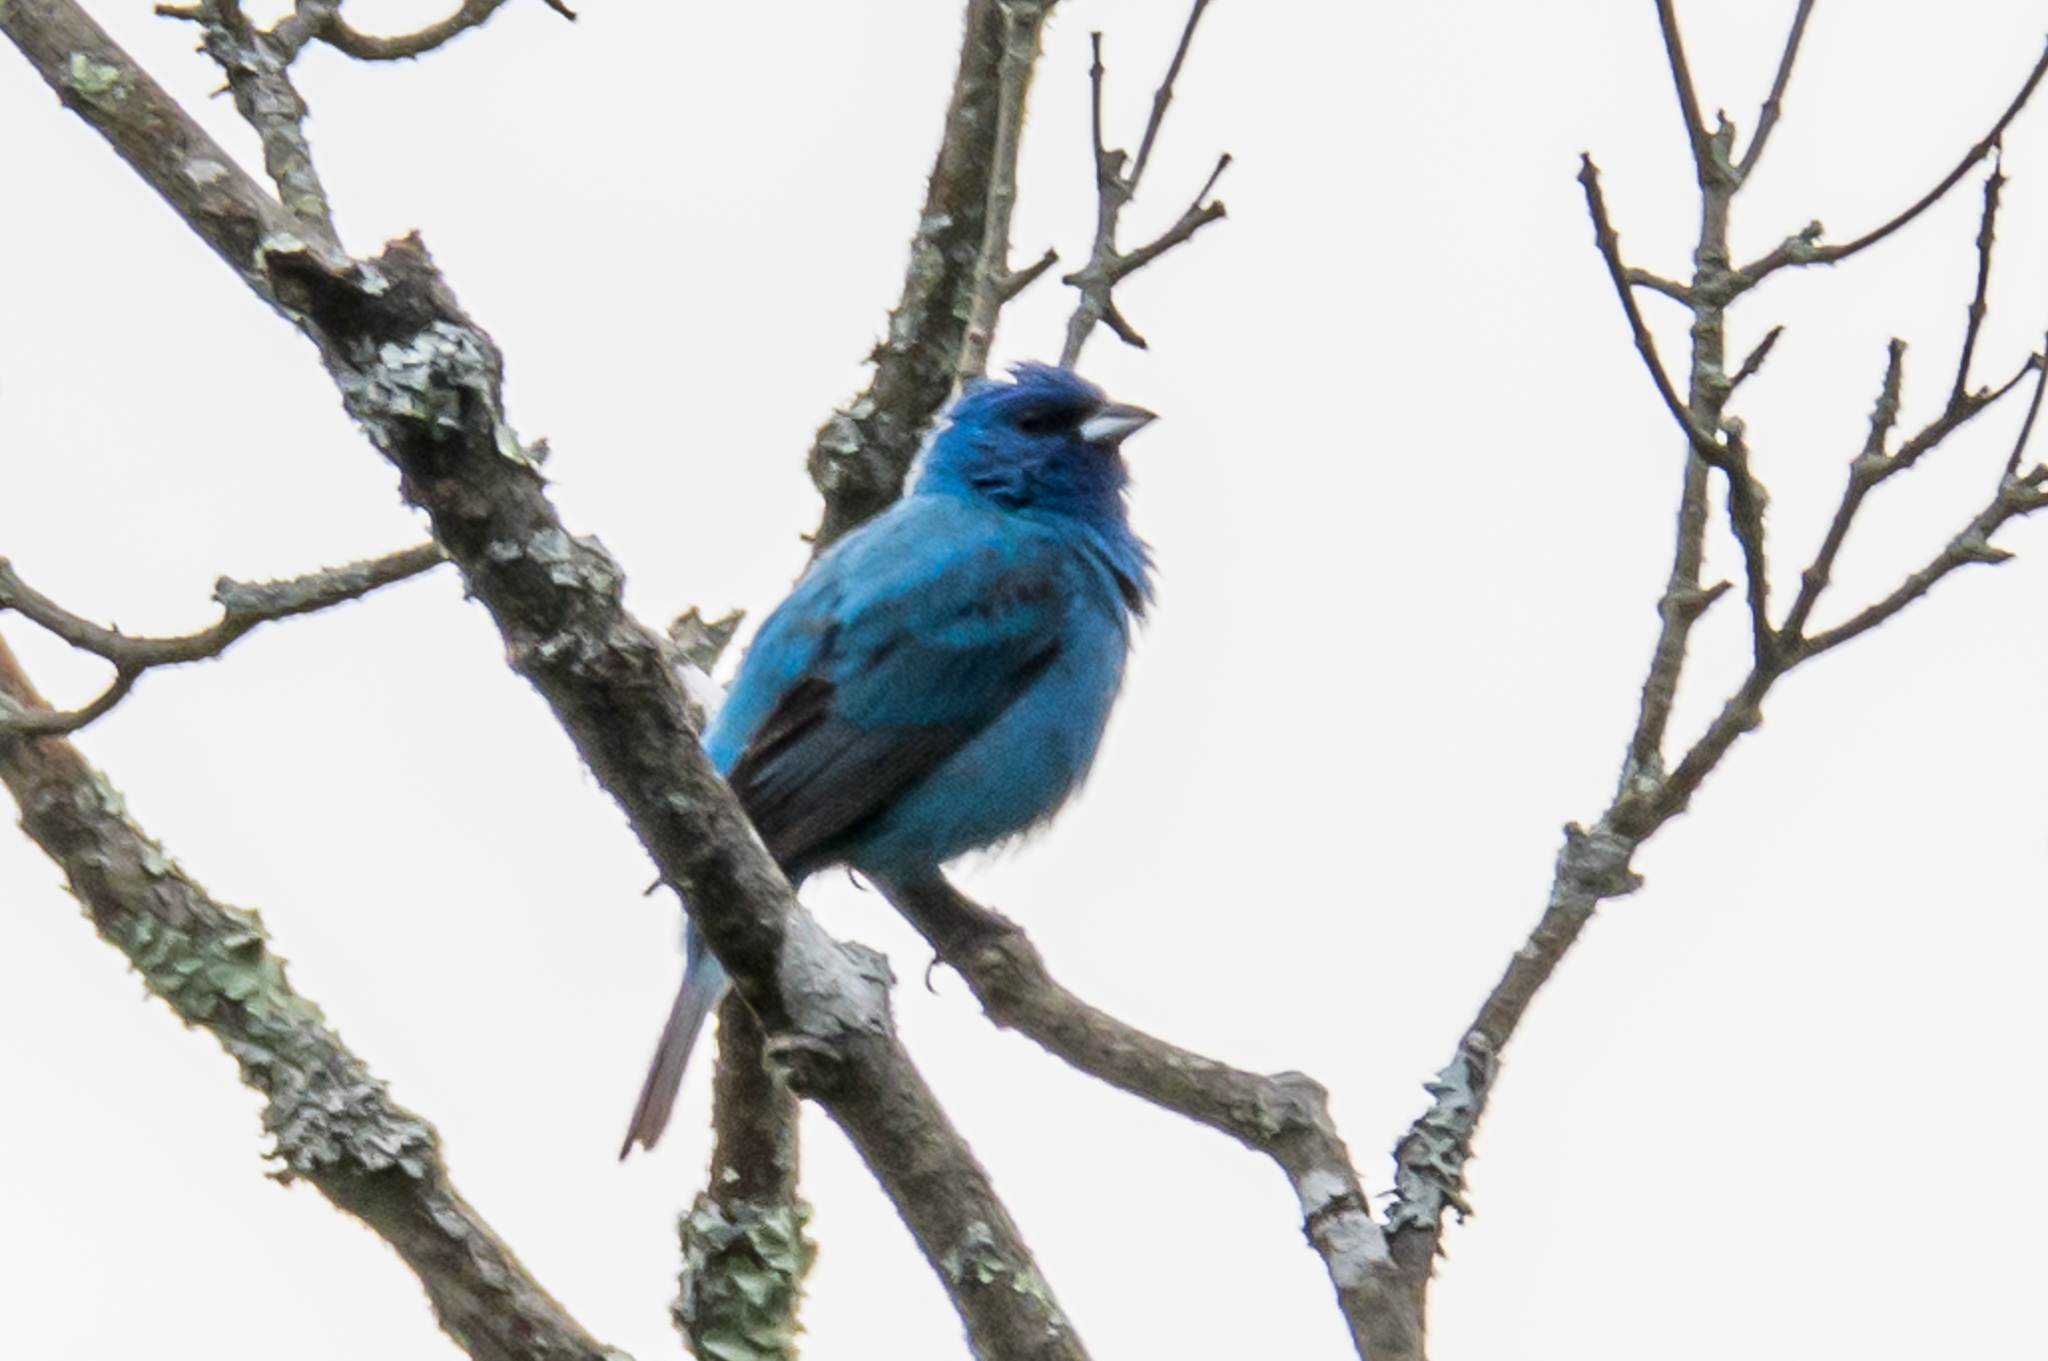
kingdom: Animalia
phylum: Chordata
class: Aves
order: Passeriformes
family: Cardinalidae
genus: Passerina
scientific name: Passerina cyanea
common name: Indigo bunting
